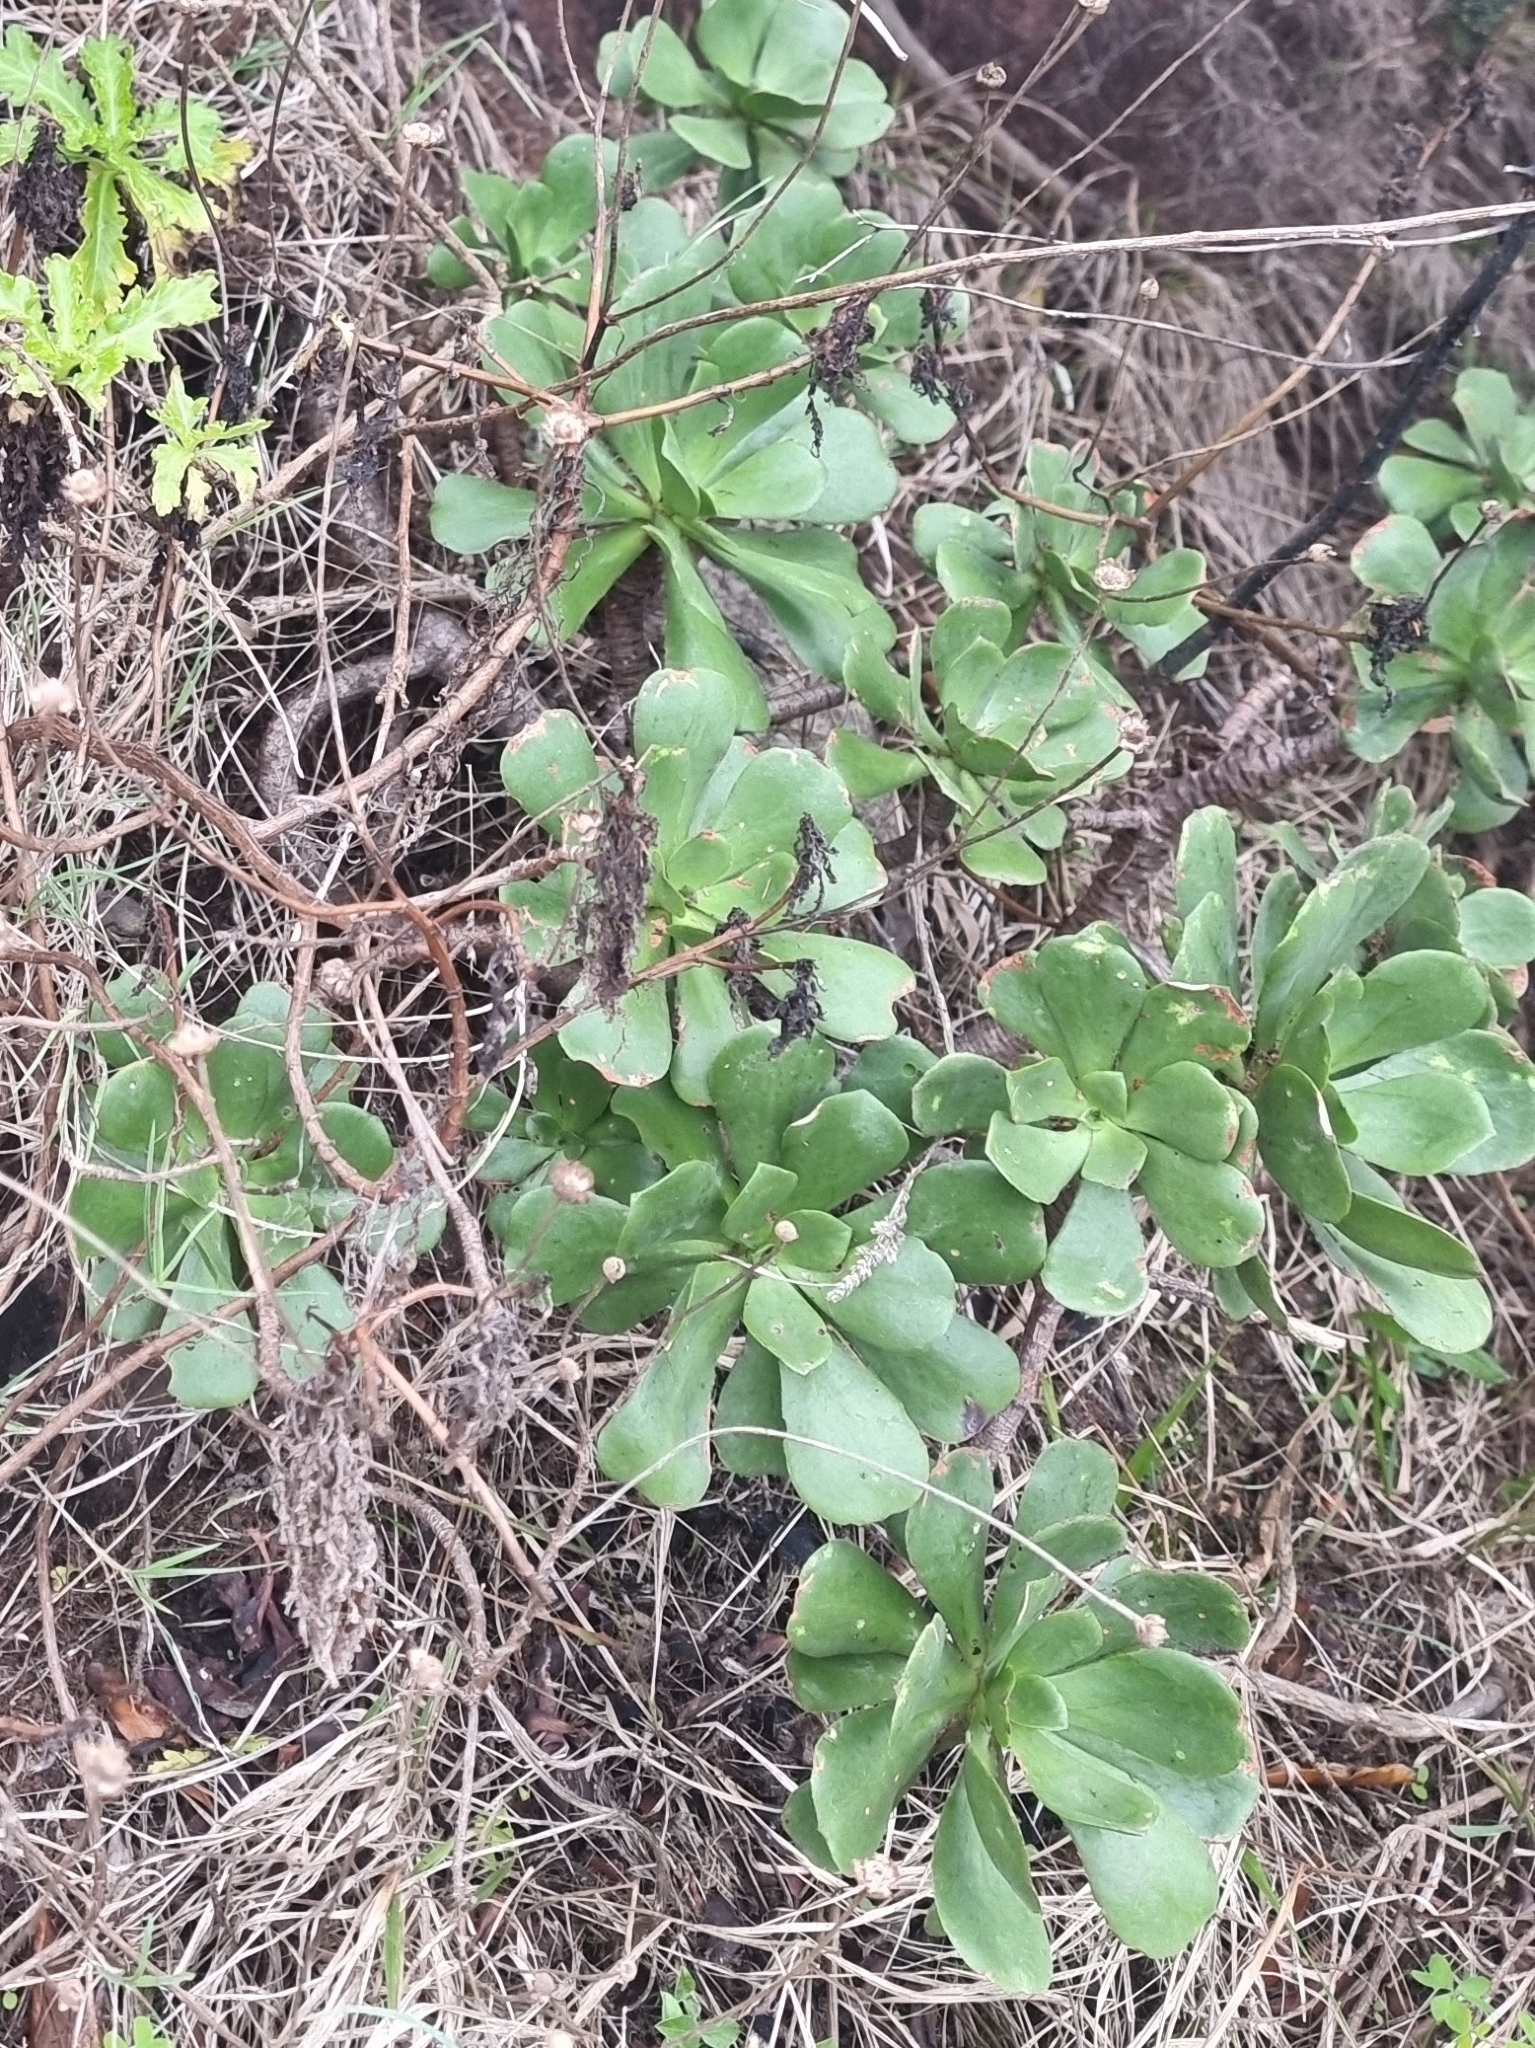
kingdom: Plantae
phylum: Tracheophyta
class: Magnoliopsida
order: Saxifragales
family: Crassulaceae
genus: Aeonium
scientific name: Aeonium glutinosum
